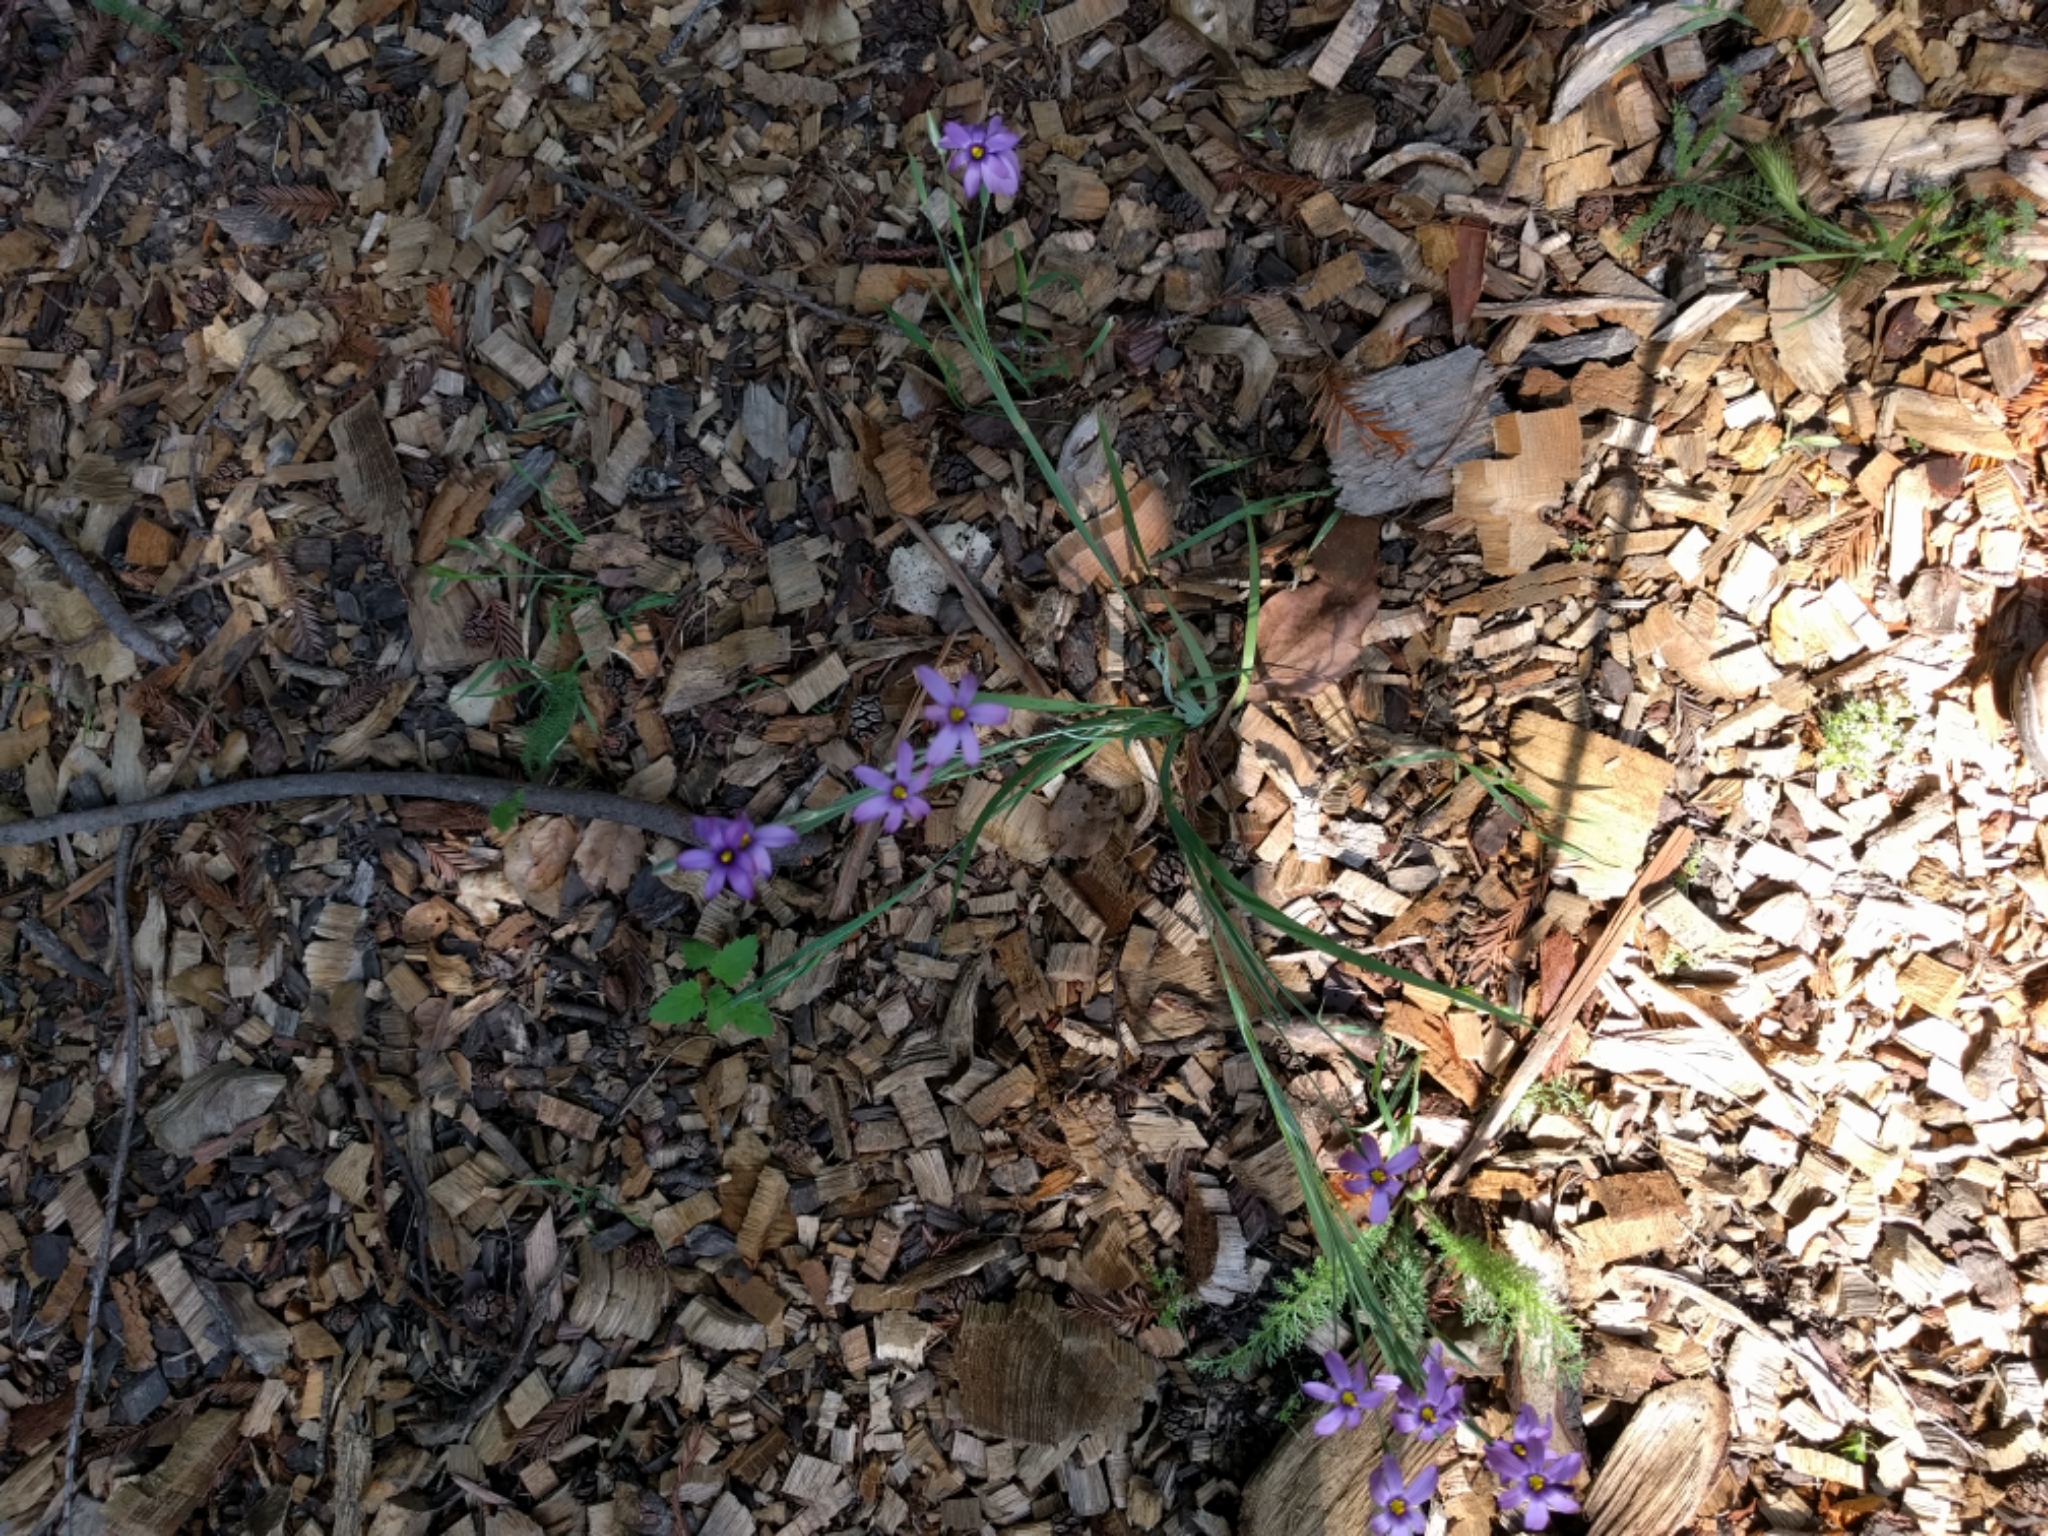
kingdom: Plantae
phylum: Tracheophyta
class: Liliopsida
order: Asparagales
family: Iridaceae
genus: Sisyrinchium
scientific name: Sisyrinchium bellum
